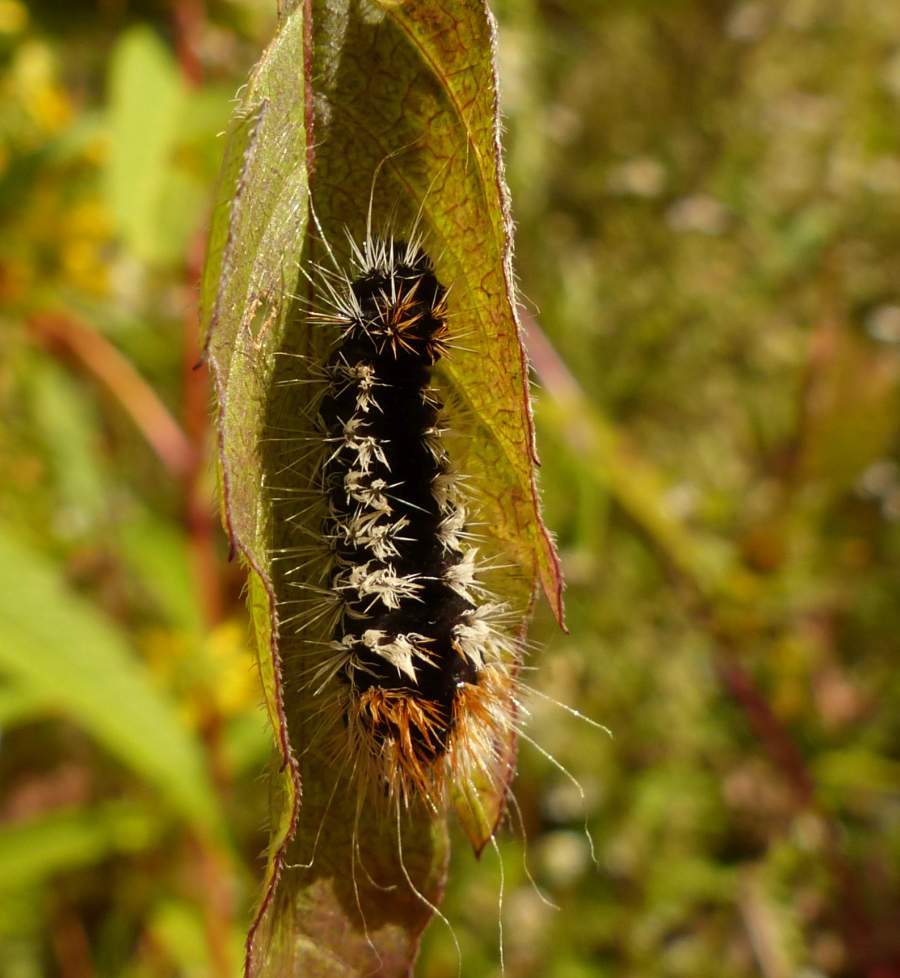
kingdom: Animalia
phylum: Arthropoda
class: Insecta
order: Lepidoptera
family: Noctuidae
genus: Acronicta
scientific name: Acronicta impressa
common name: Impressed dagger
